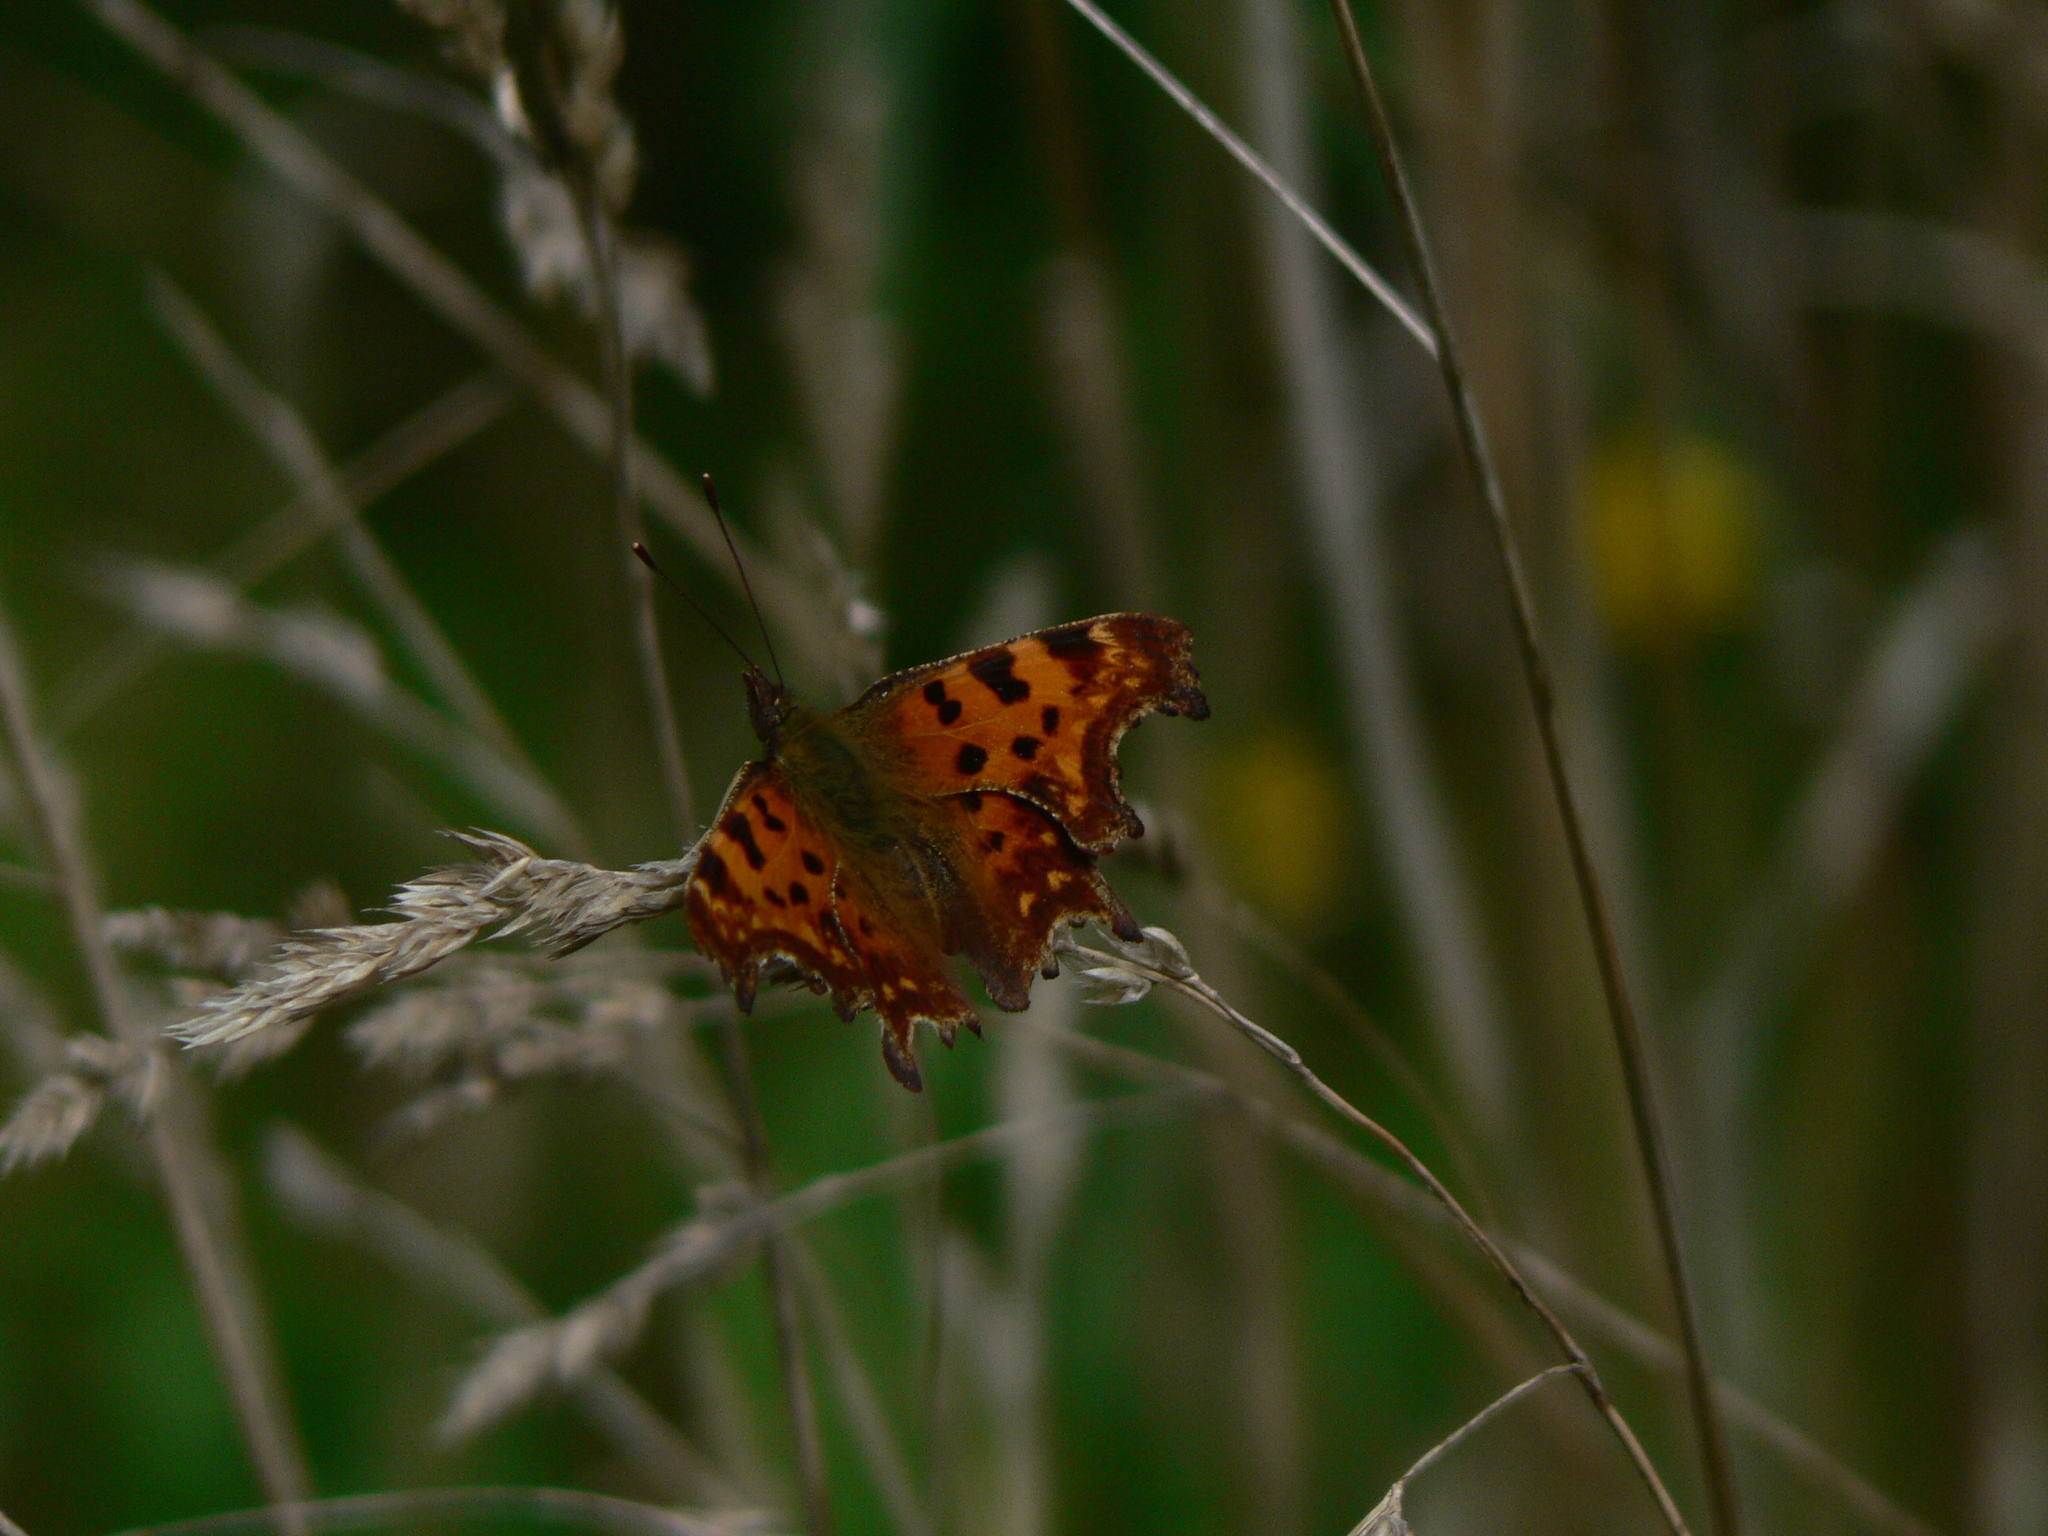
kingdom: Animalia
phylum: Arthropoda
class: Insecta
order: Lepidoptera
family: Nymphalidae
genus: Polygonia
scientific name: Polygonia c-album
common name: Comma
